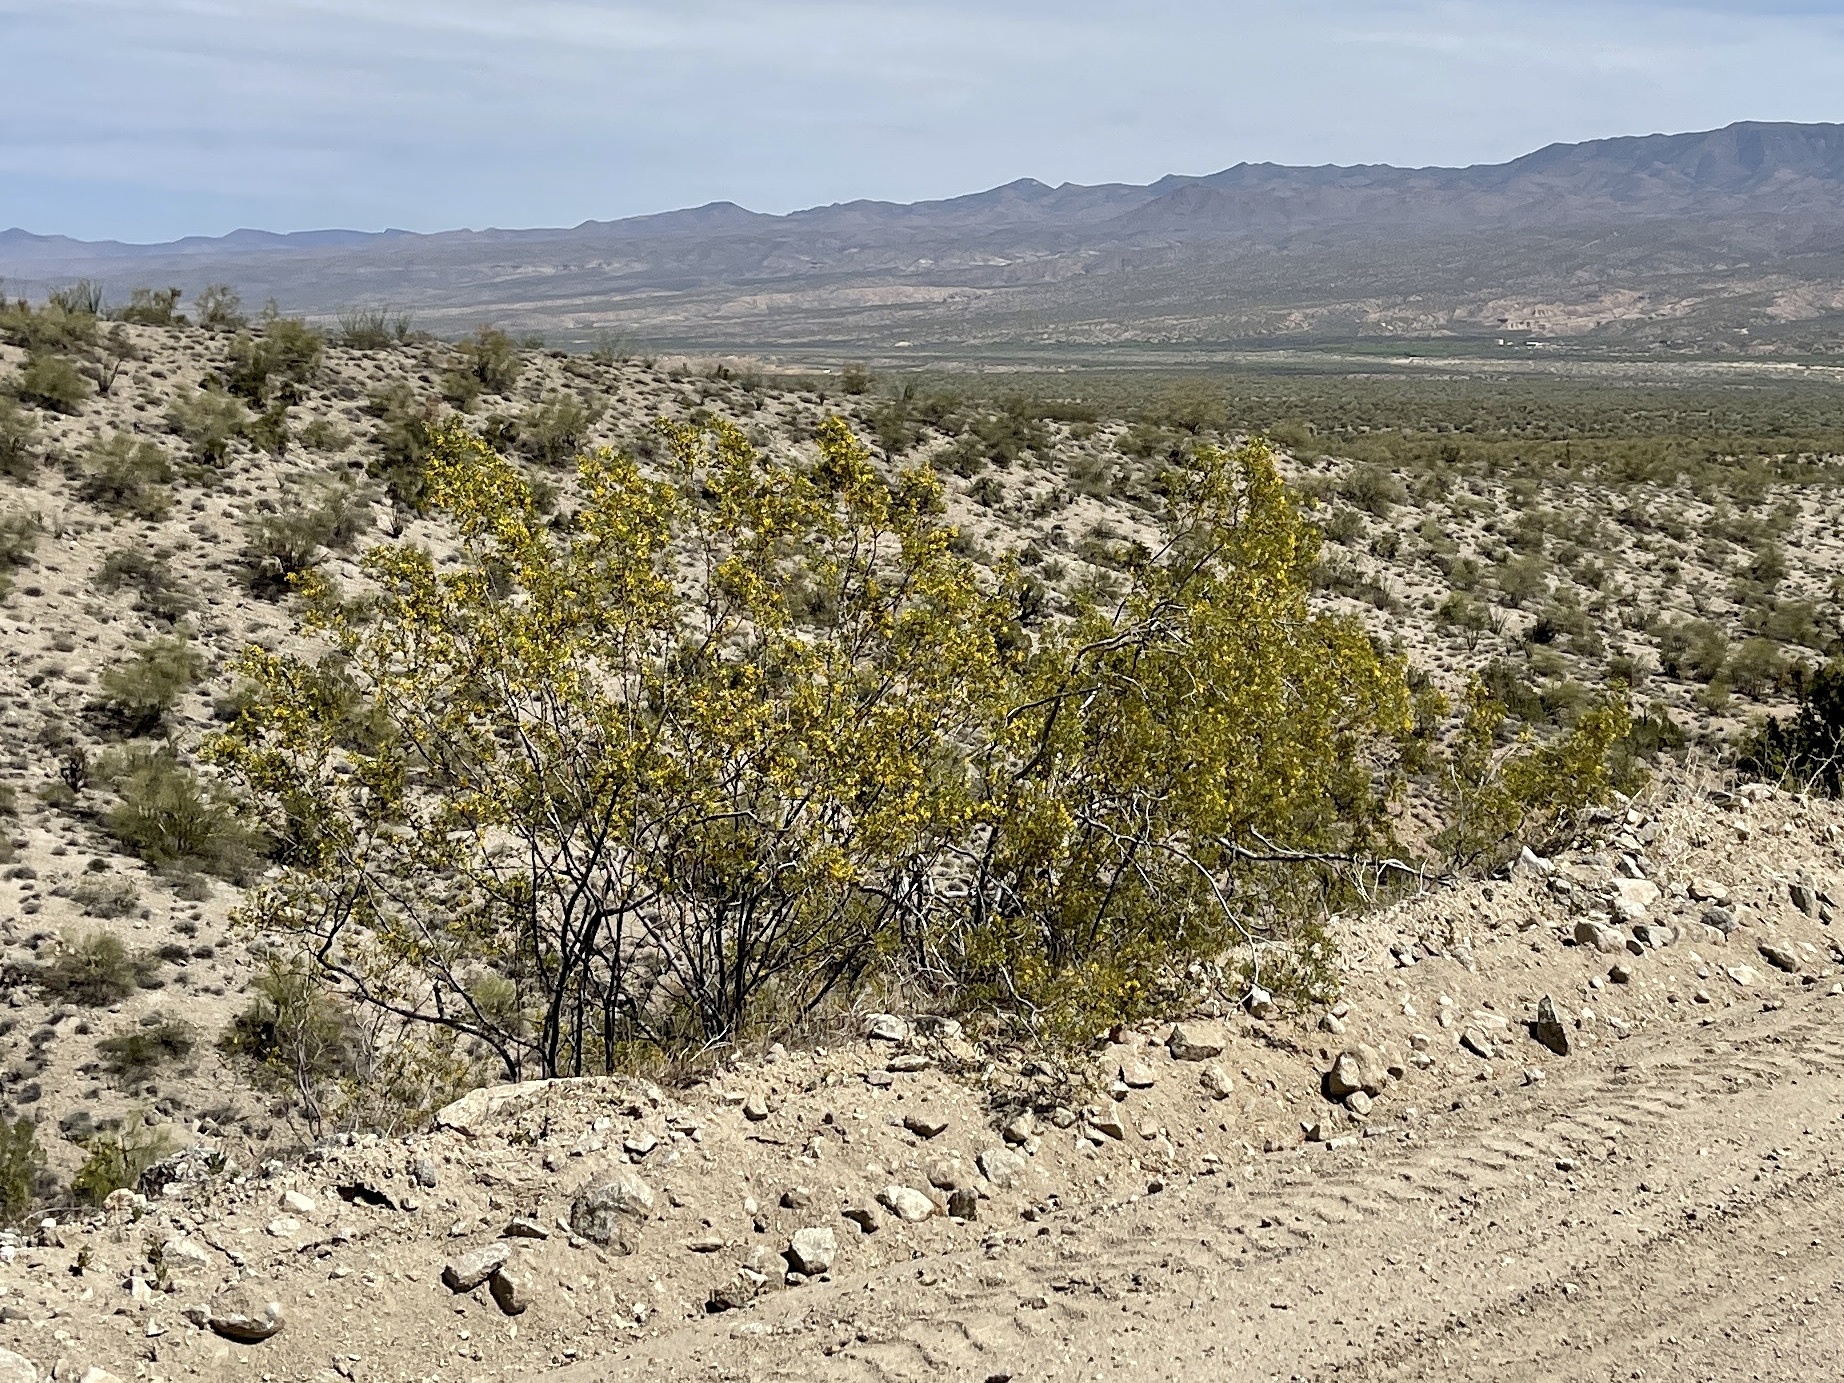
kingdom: Plantae
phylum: Tracheophyta
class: Magnoliopsida
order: Zygophyllales
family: Zygophyllaceae
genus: Larrea
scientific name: Larrea tridentata
